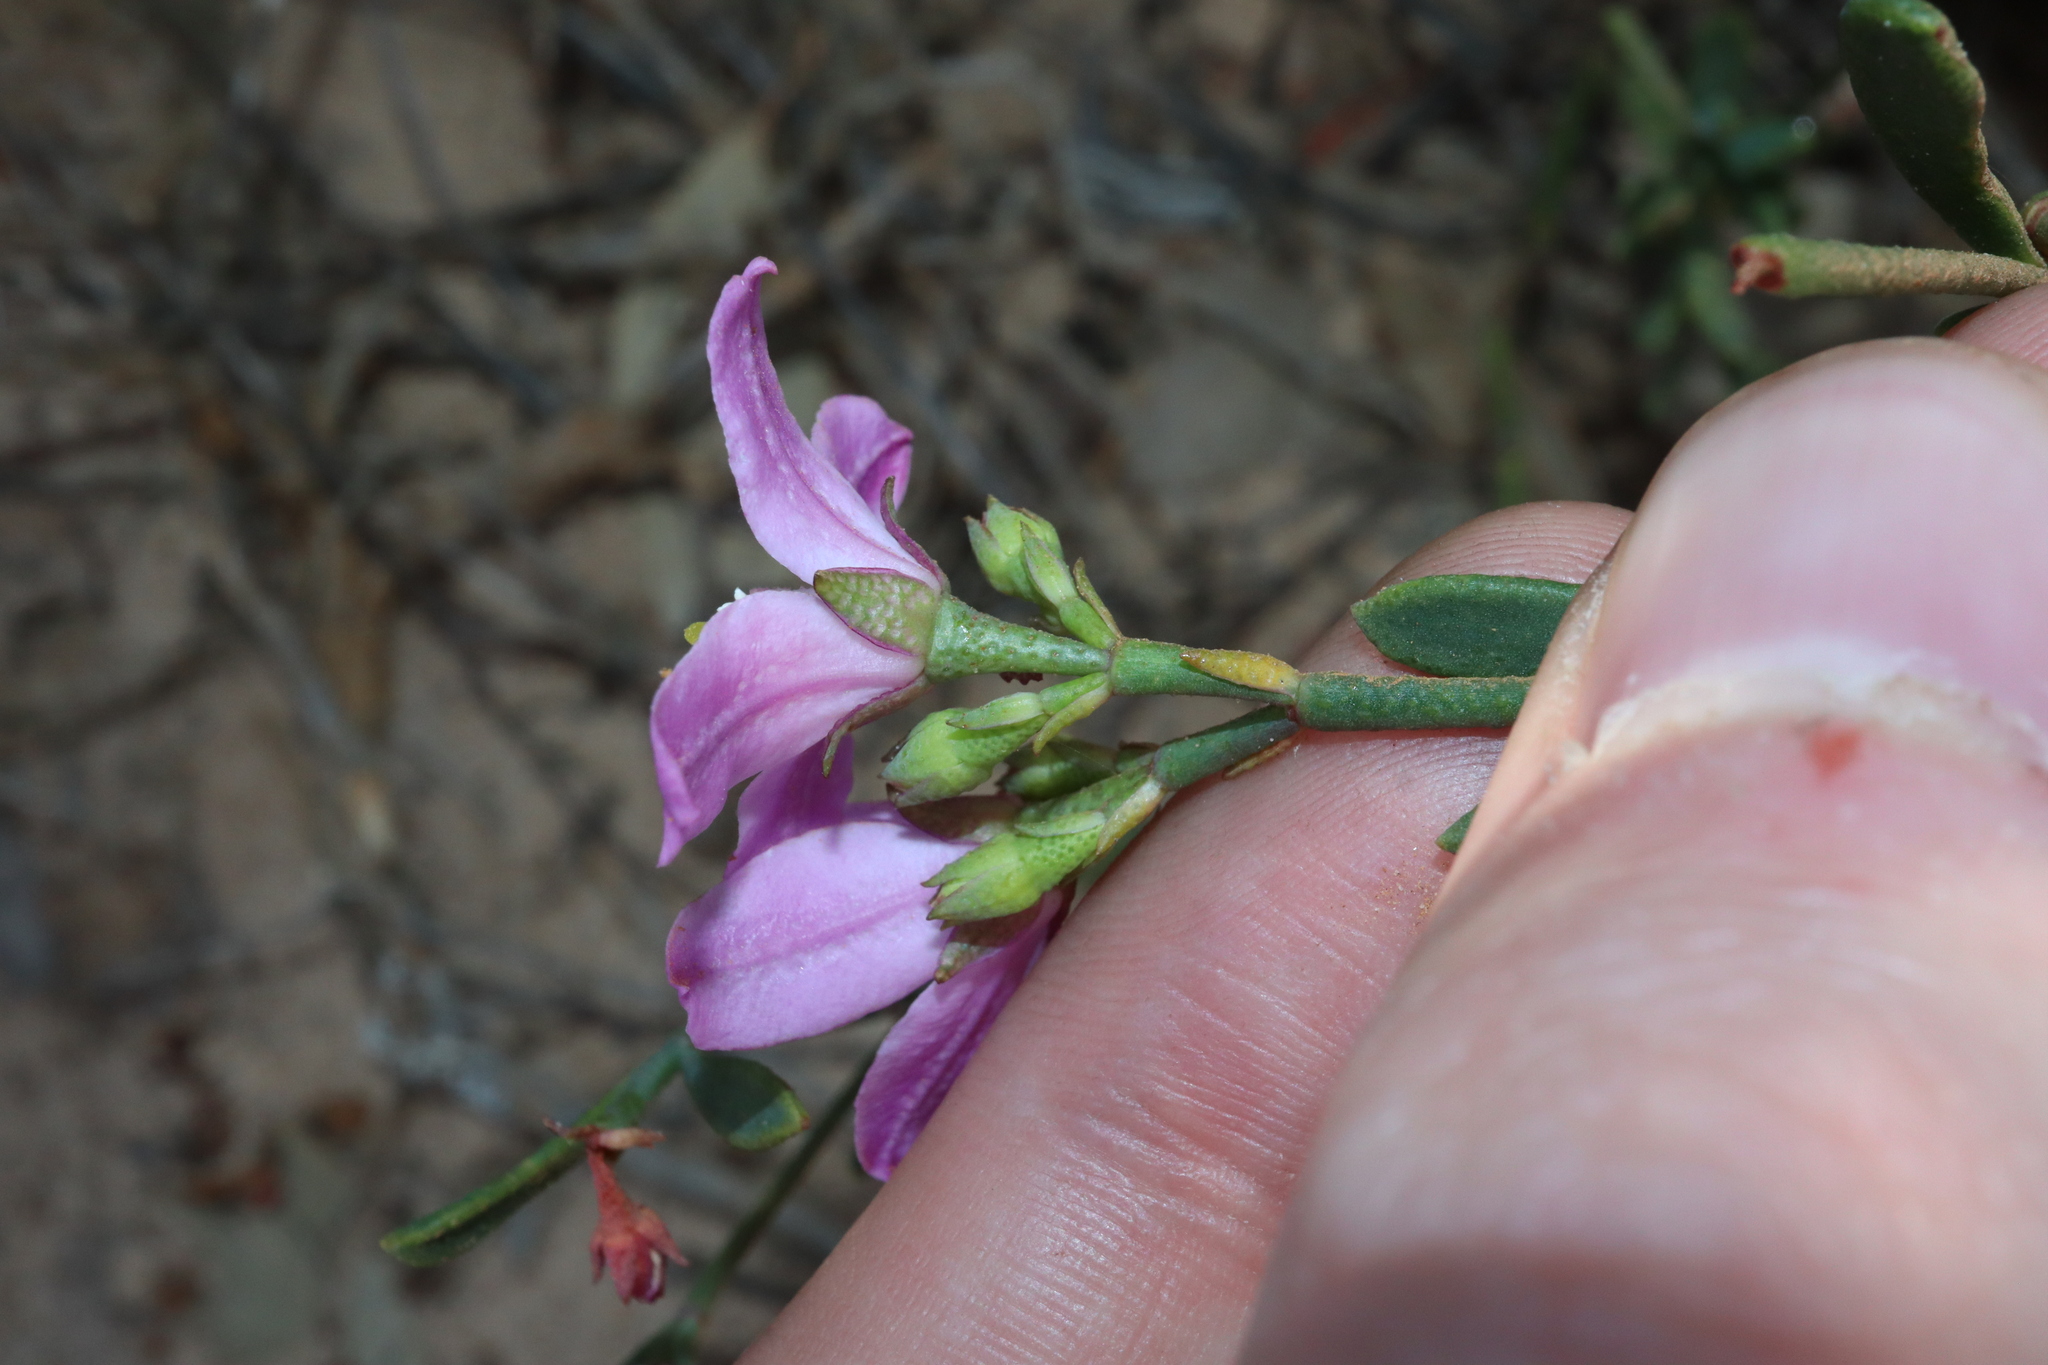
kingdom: Plantae
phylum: Tracheophyta
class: Magnoliopsida
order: Sapindales
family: Rutaceae
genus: Boronia
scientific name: Boronia spathulata
